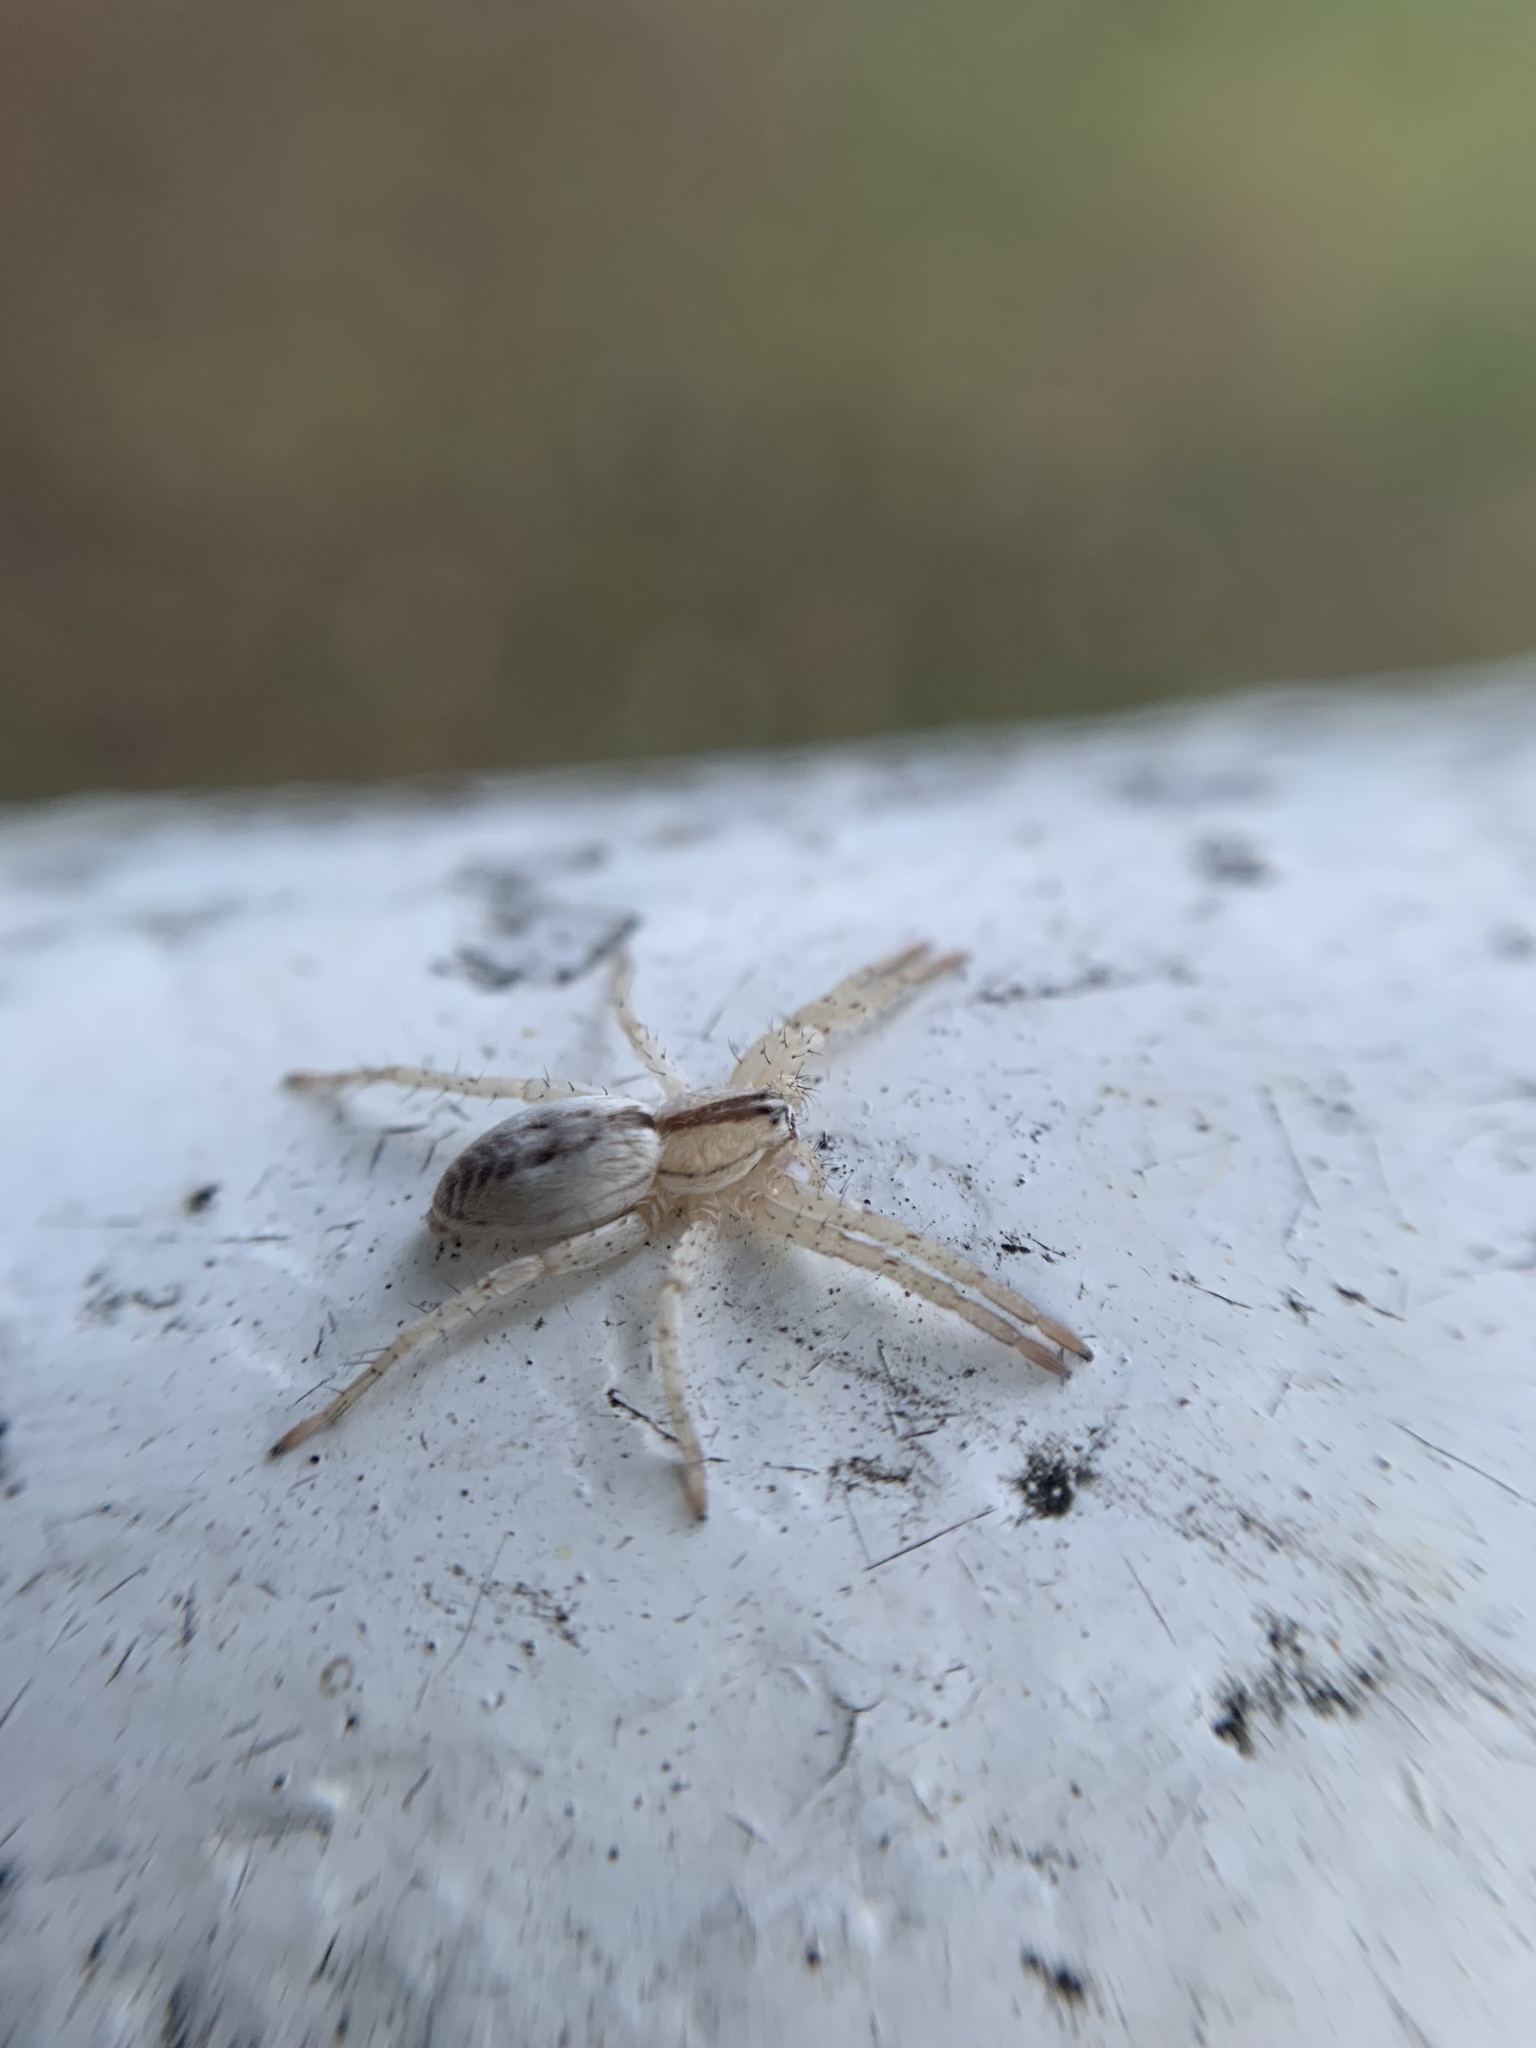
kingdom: Animalia
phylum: Arthropoda
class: Arachnida
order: Araneae
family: Anyphaenidae
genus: Arachosia
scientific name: Arachosia praesignis
